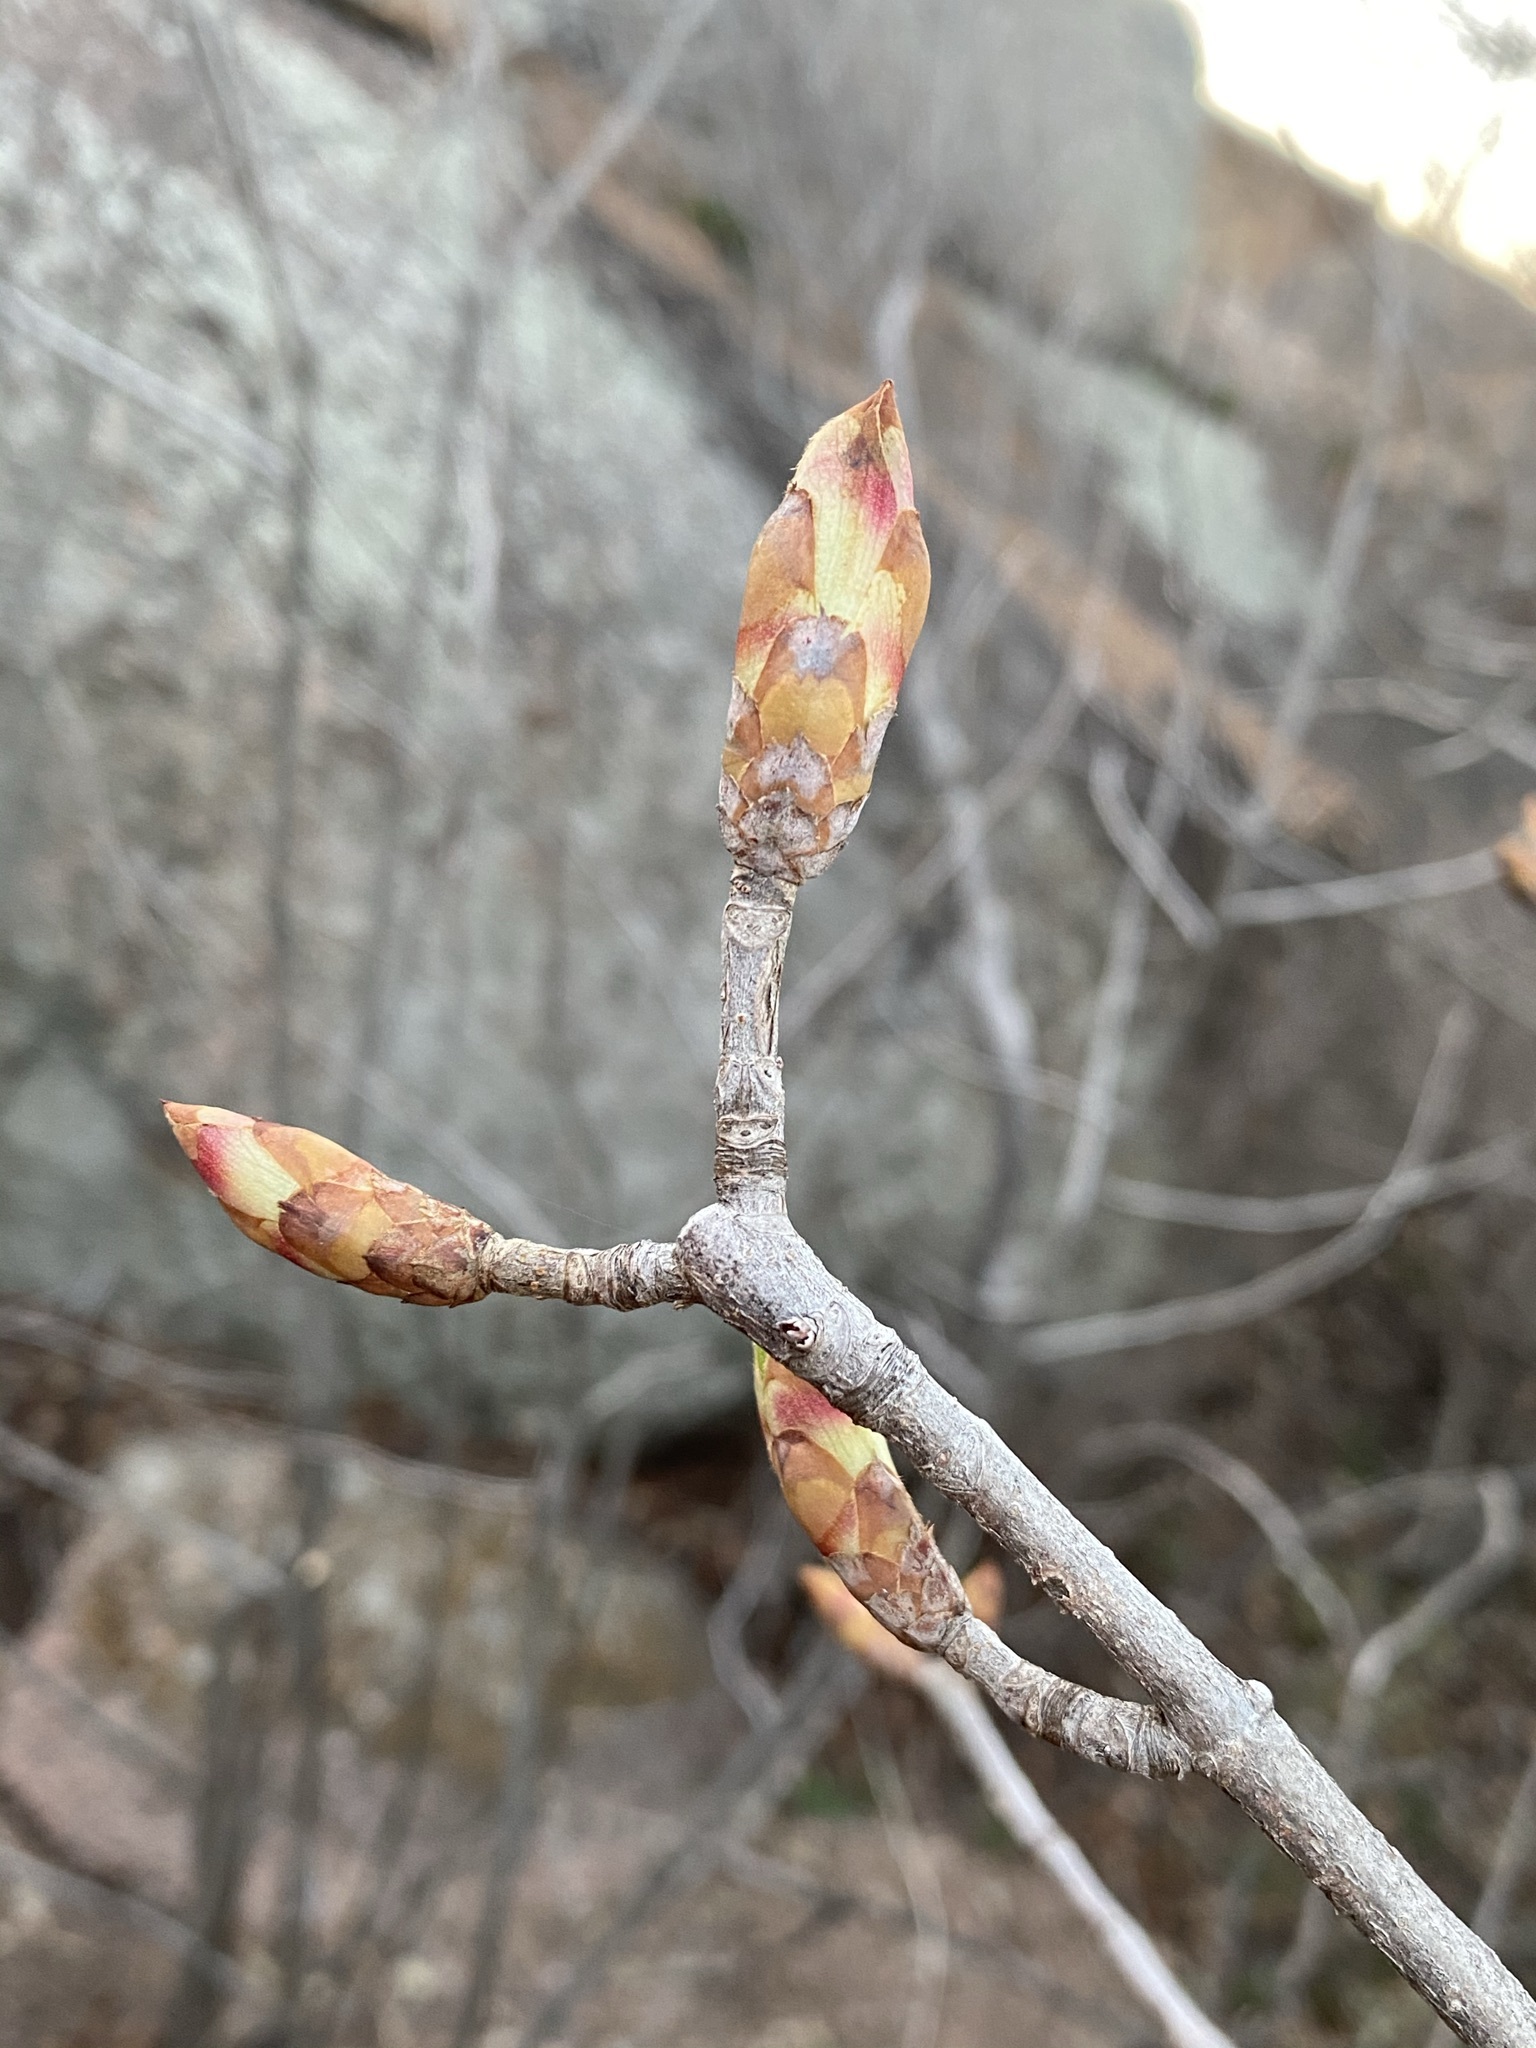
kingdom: Plantae
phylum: Tracheophyta
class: Magnoliopsida
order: Sapindales
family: Sapindaceae
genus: Aesculus
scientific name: Aesculus glabra
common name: Ohio buckeye
